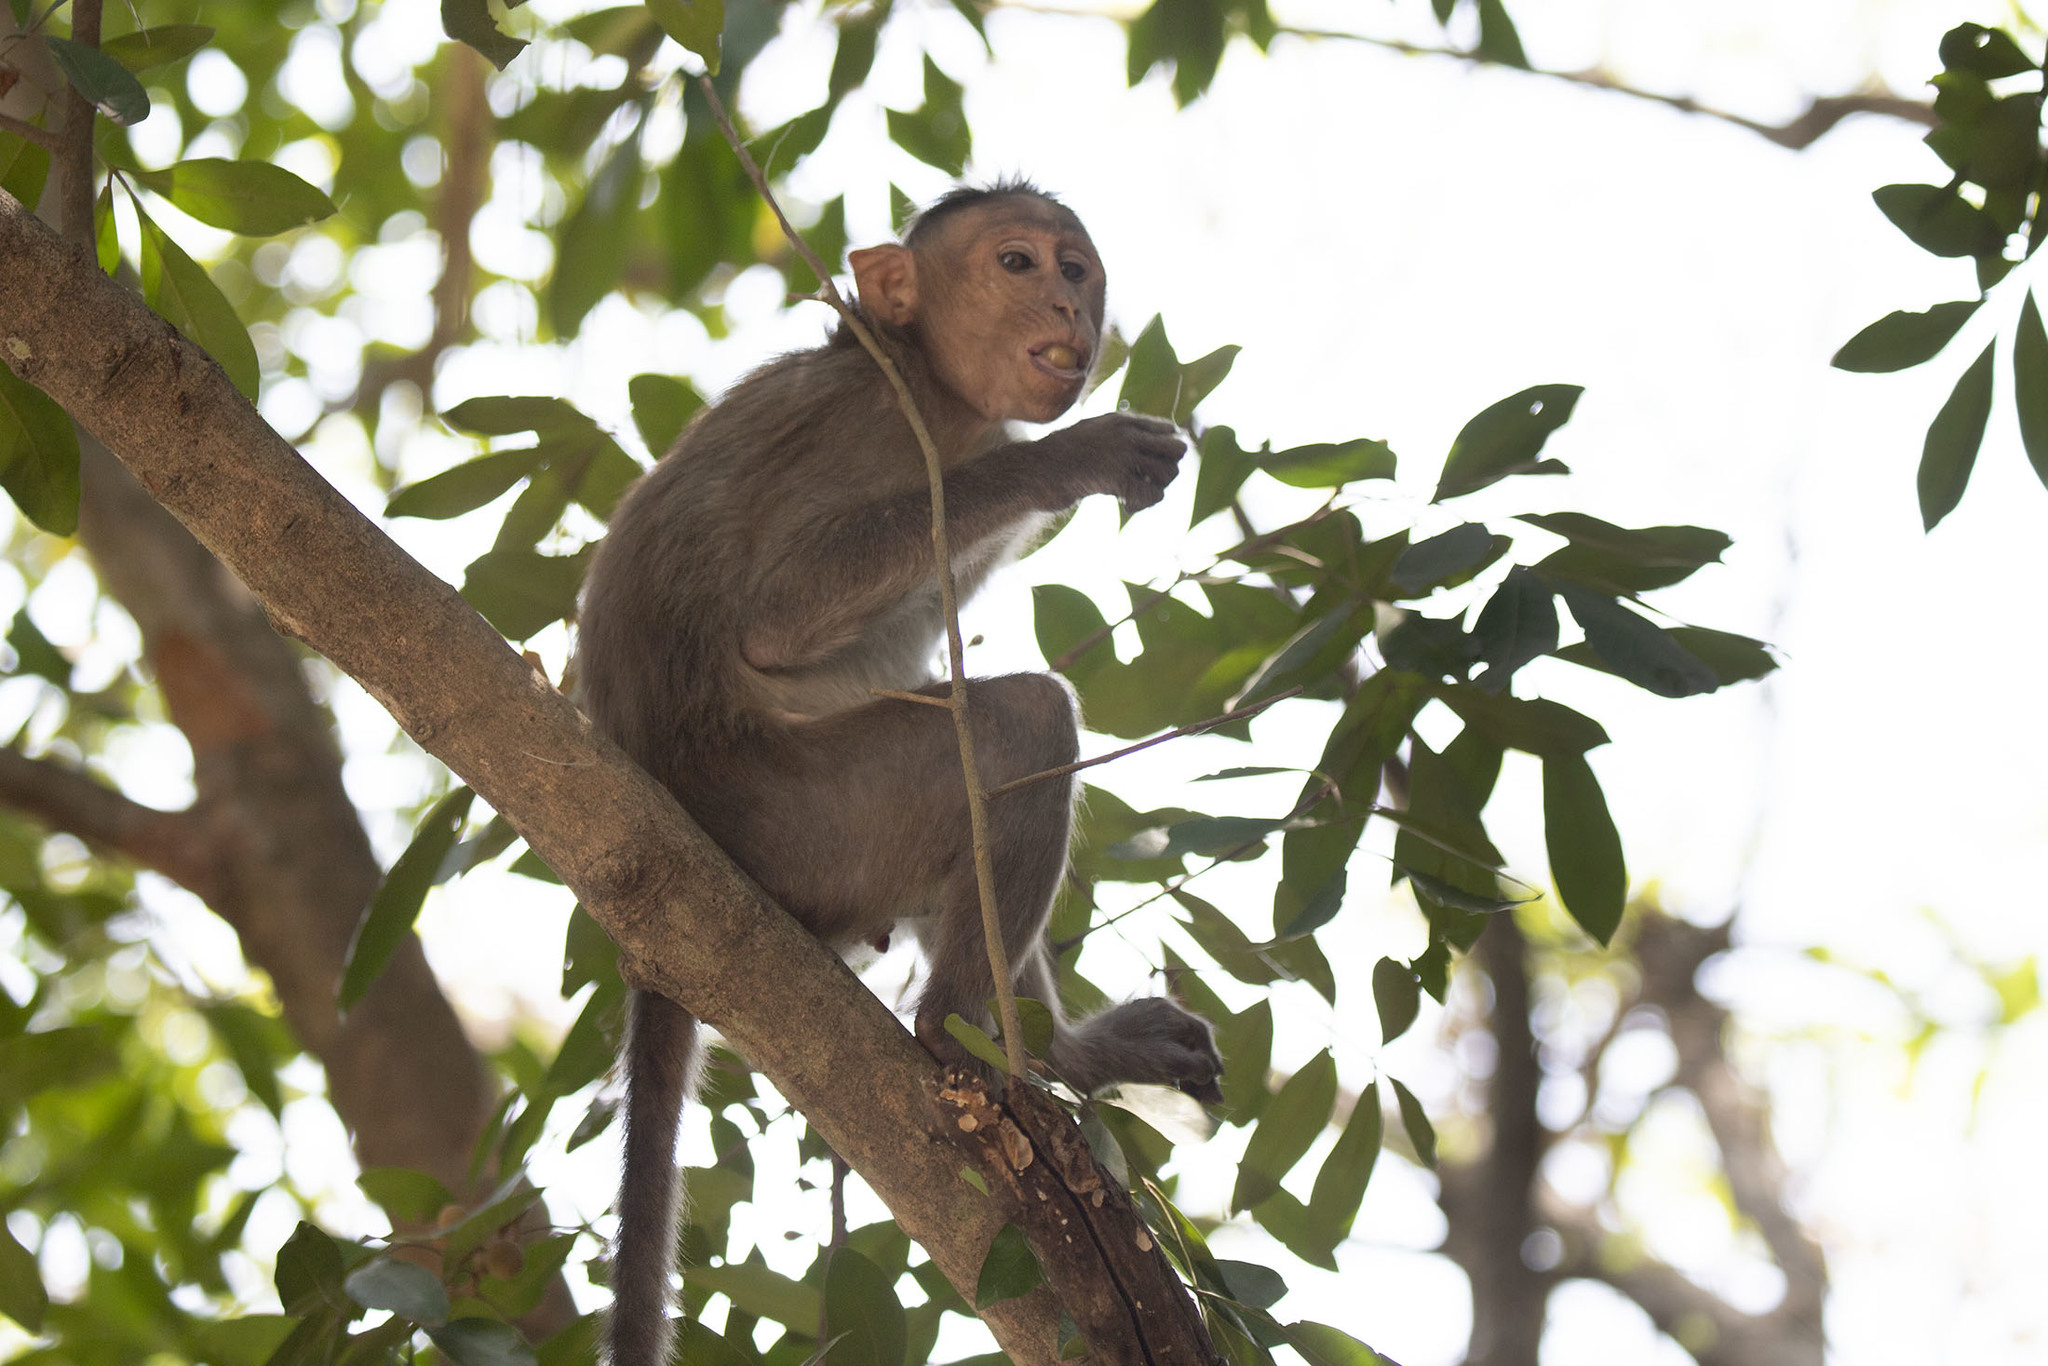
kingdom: Animalia
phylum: Chordata
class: Mammalia
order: Primates
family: Cercopithecidae
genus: Macaca
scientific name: Macaca radiata
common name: Bonnet macaque
